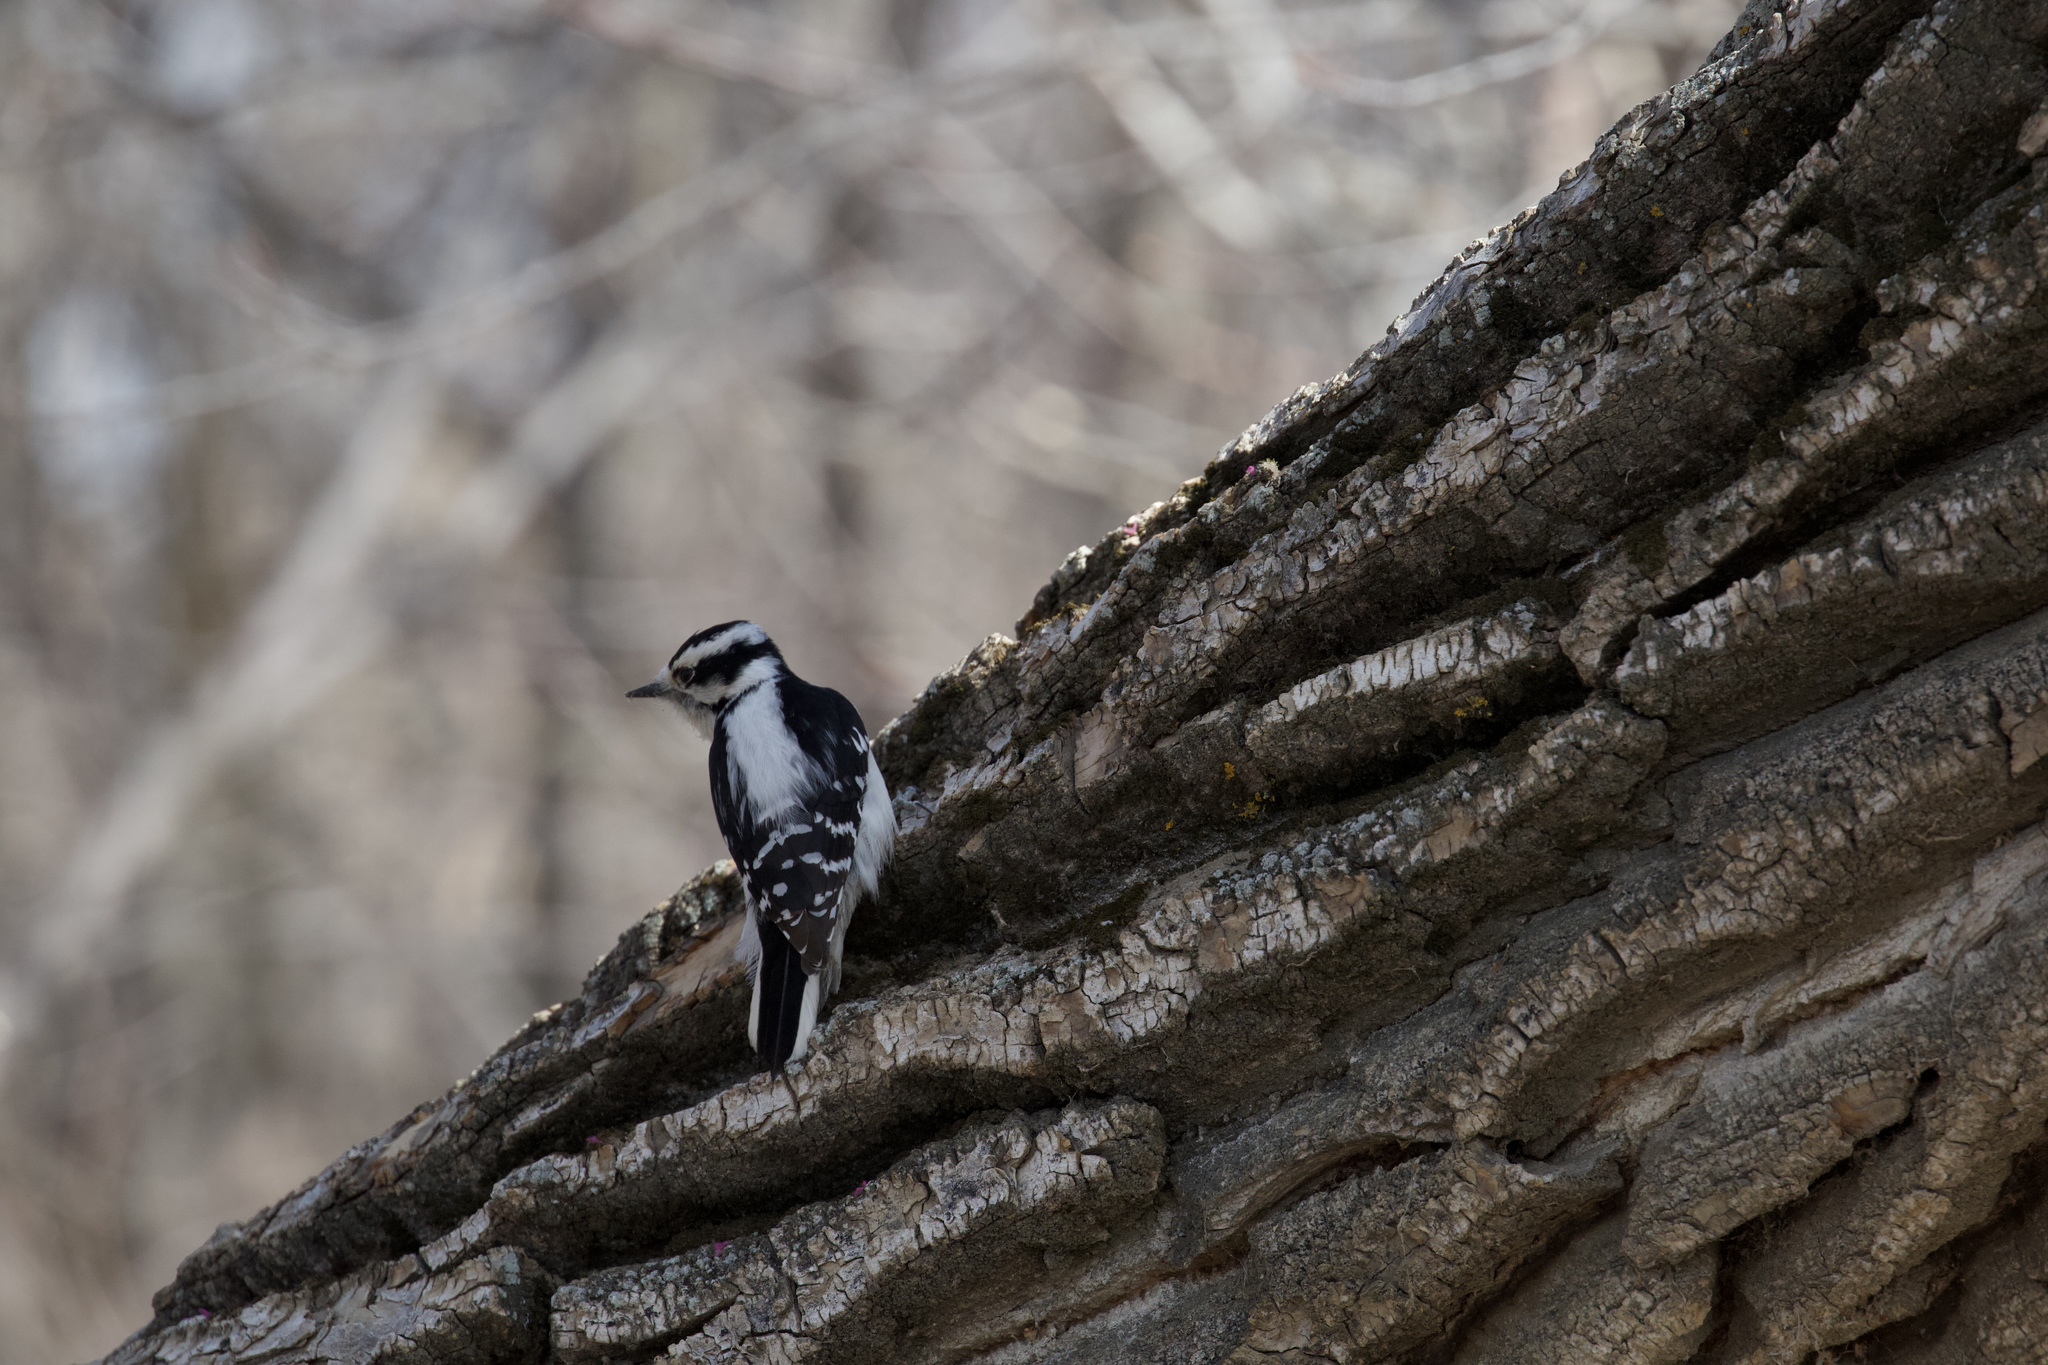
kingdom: Animalia
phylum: Chordata
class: Aves
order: Piciformes
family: Picidae
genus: Dryobates
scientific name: Dryobates pubescens
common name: Downy woodpecker
